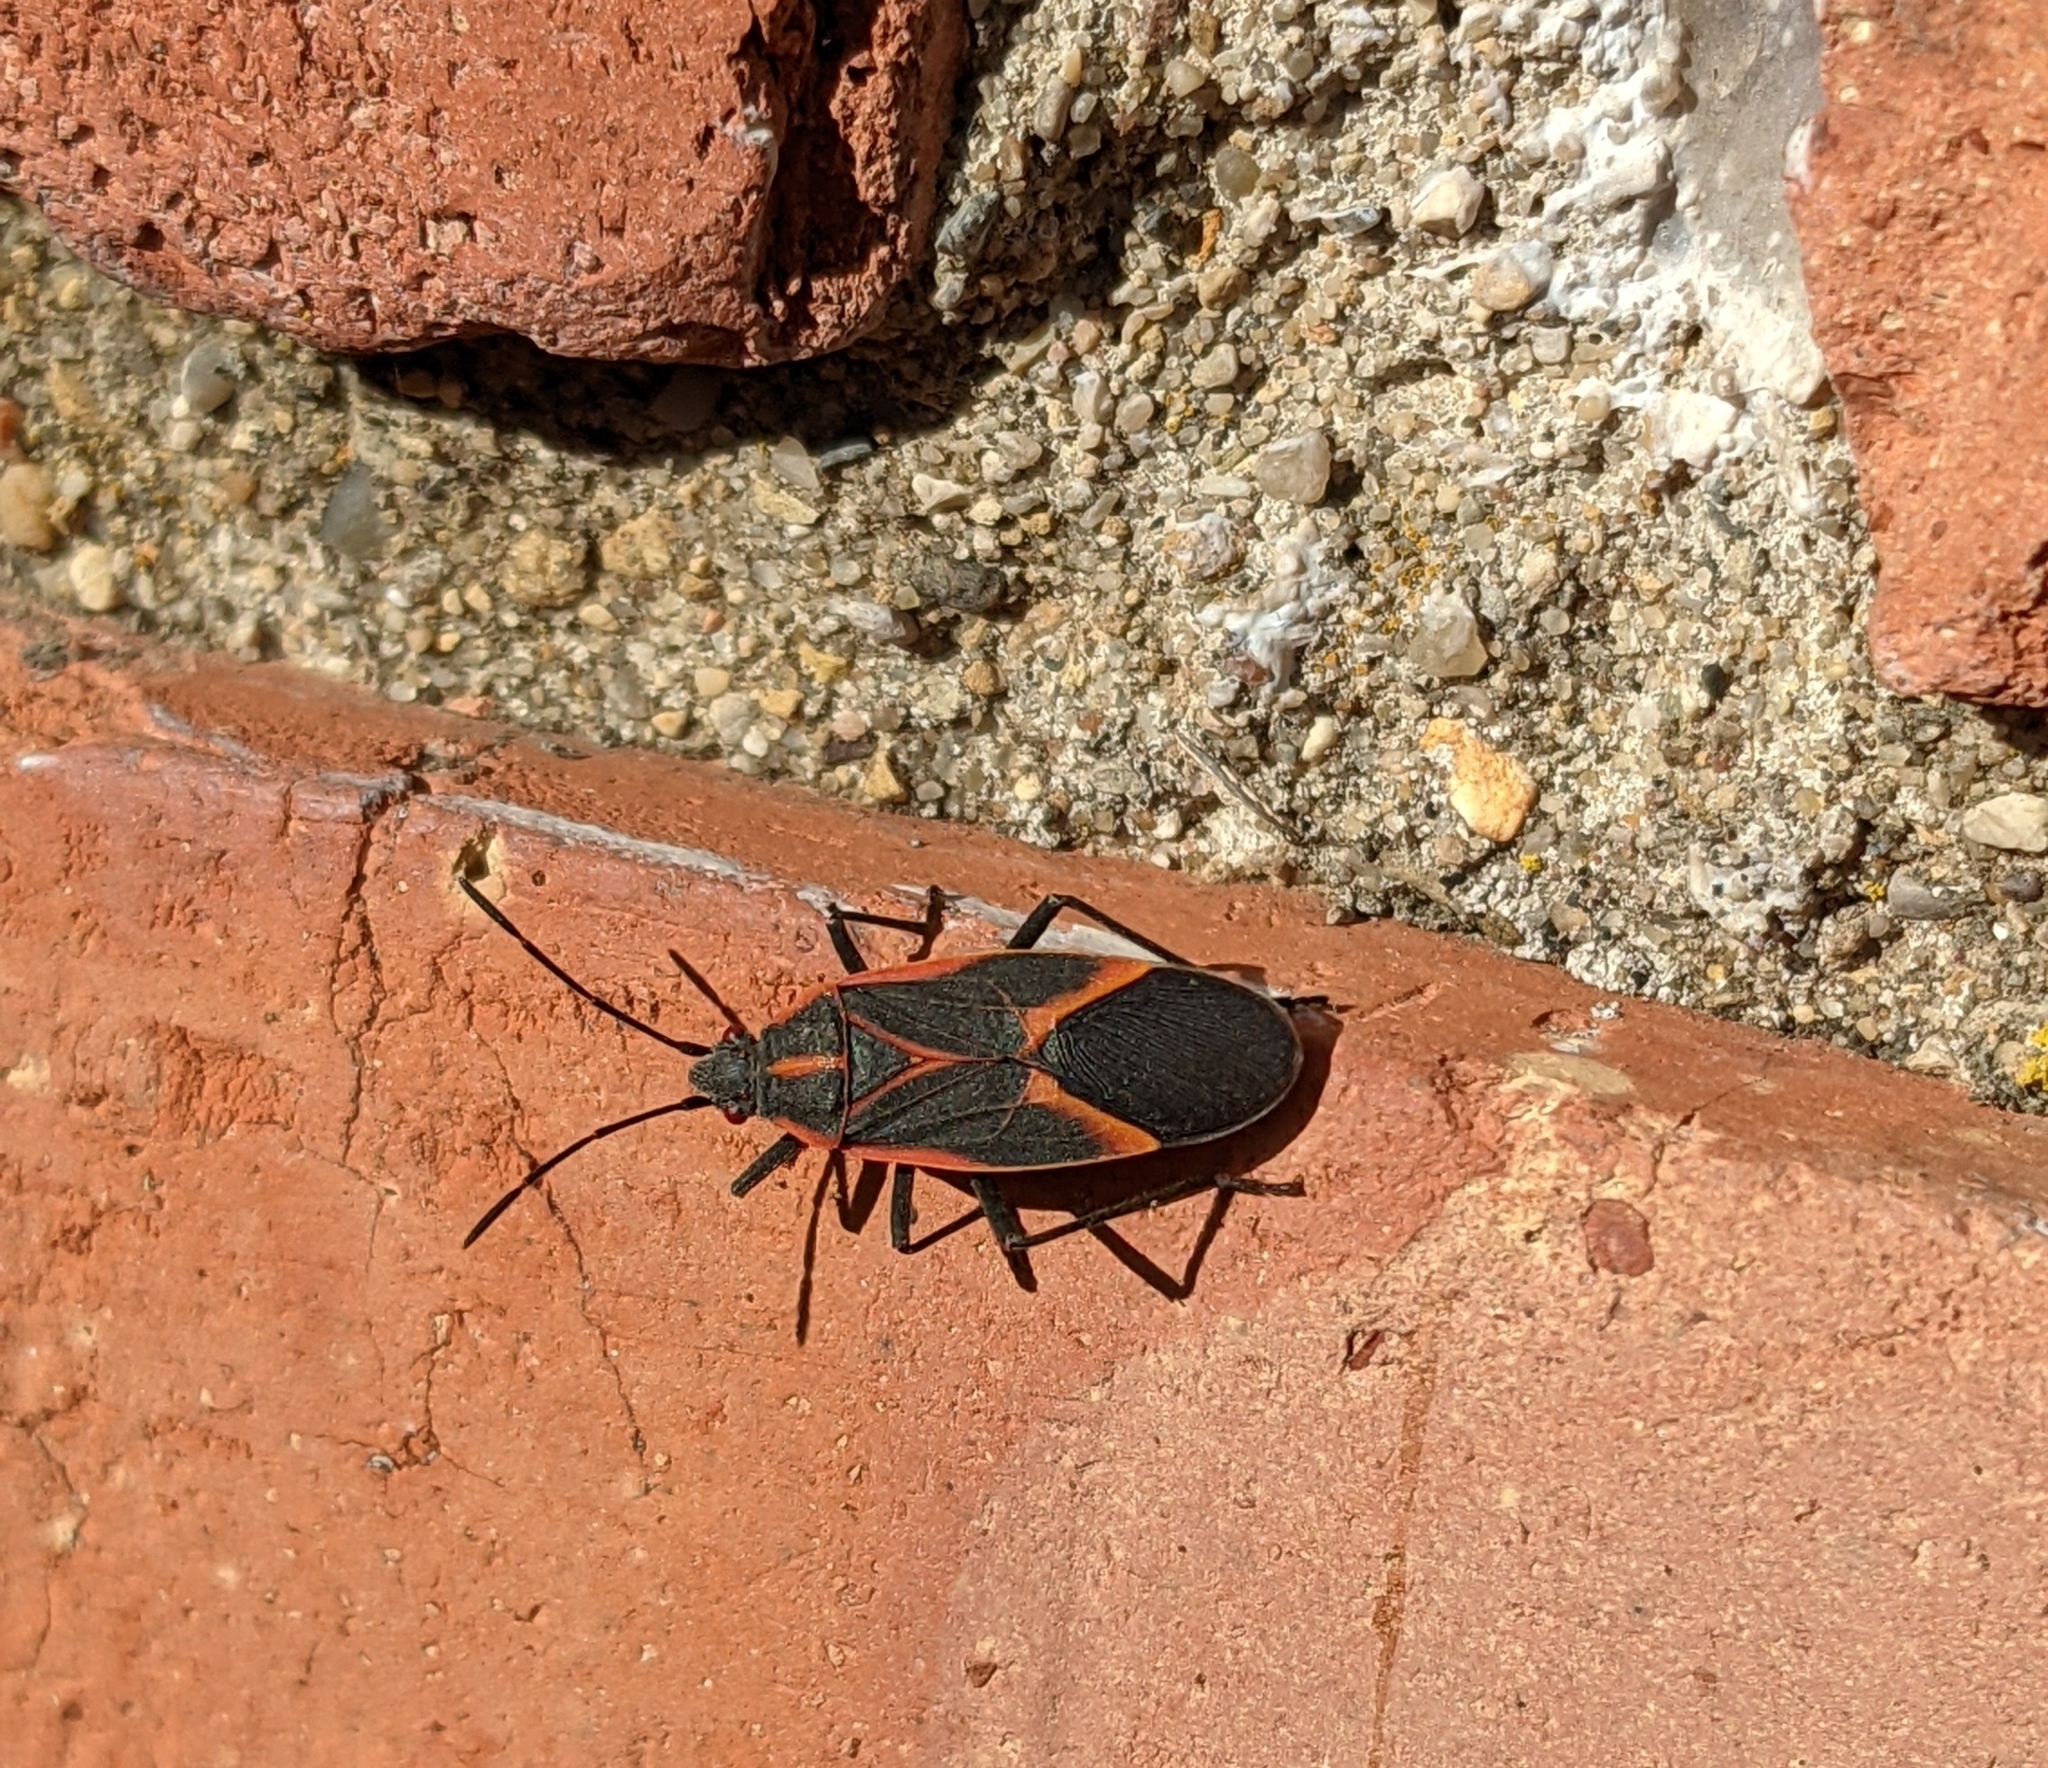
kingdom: Animalia
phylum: Arthropoda
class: Insecta
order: Hemiptera
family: Rhopalidae
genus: Boisea
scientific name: Boisea trivittata
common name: Boxelder bug
